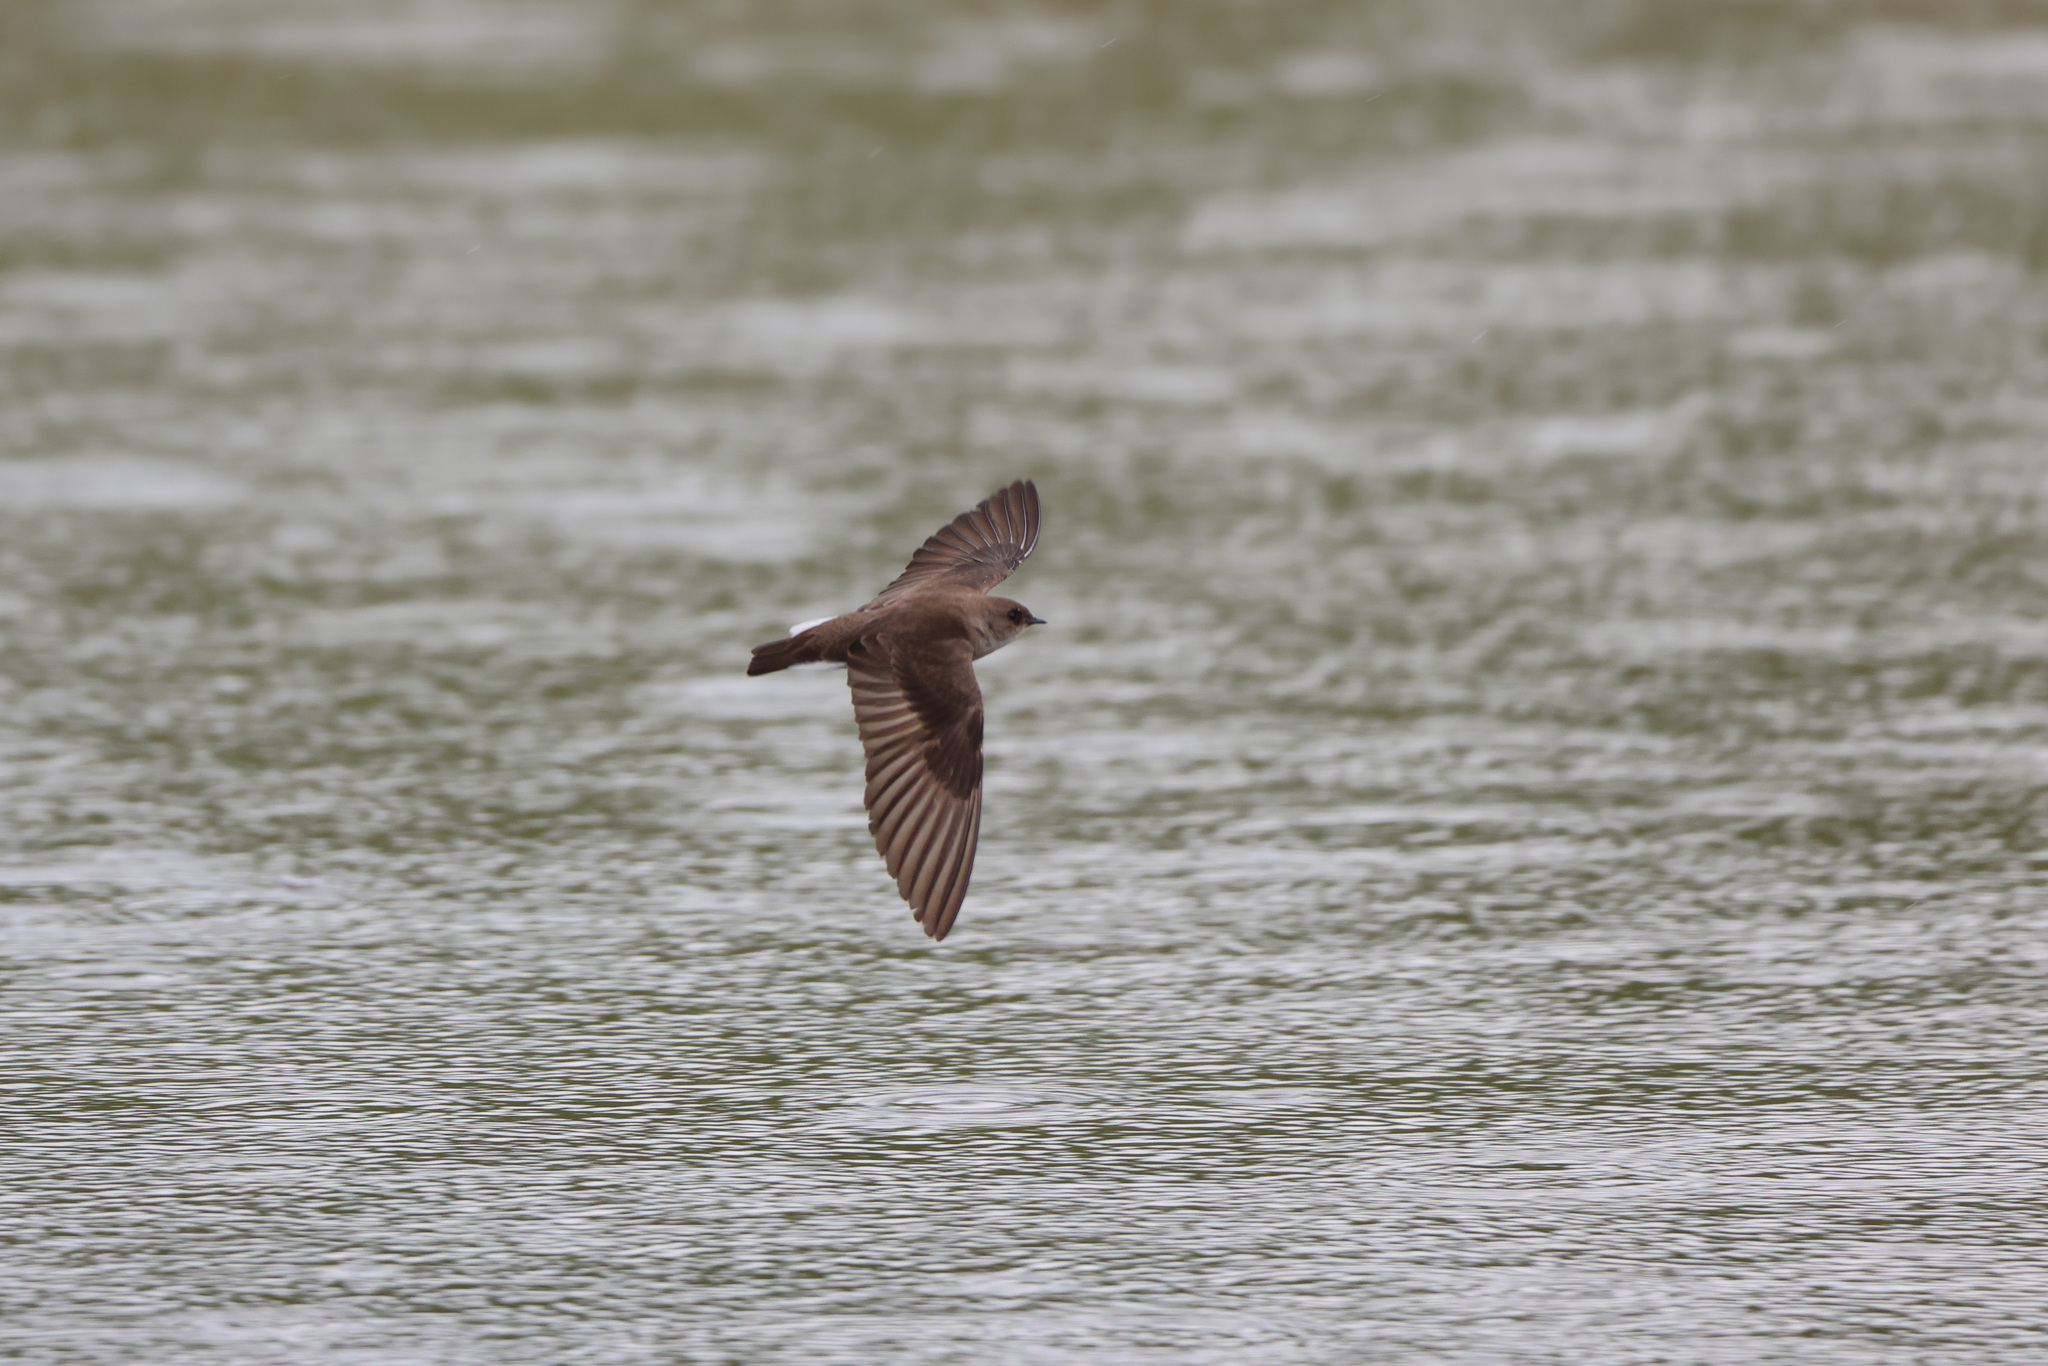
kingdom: Animalia
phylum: Chordata
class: Aves
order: Passeriformes
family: Hirundinidae
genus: Stelgidopteryx
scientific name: Stelgidopteryx serripennis
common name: Northern rough-winged swallow
